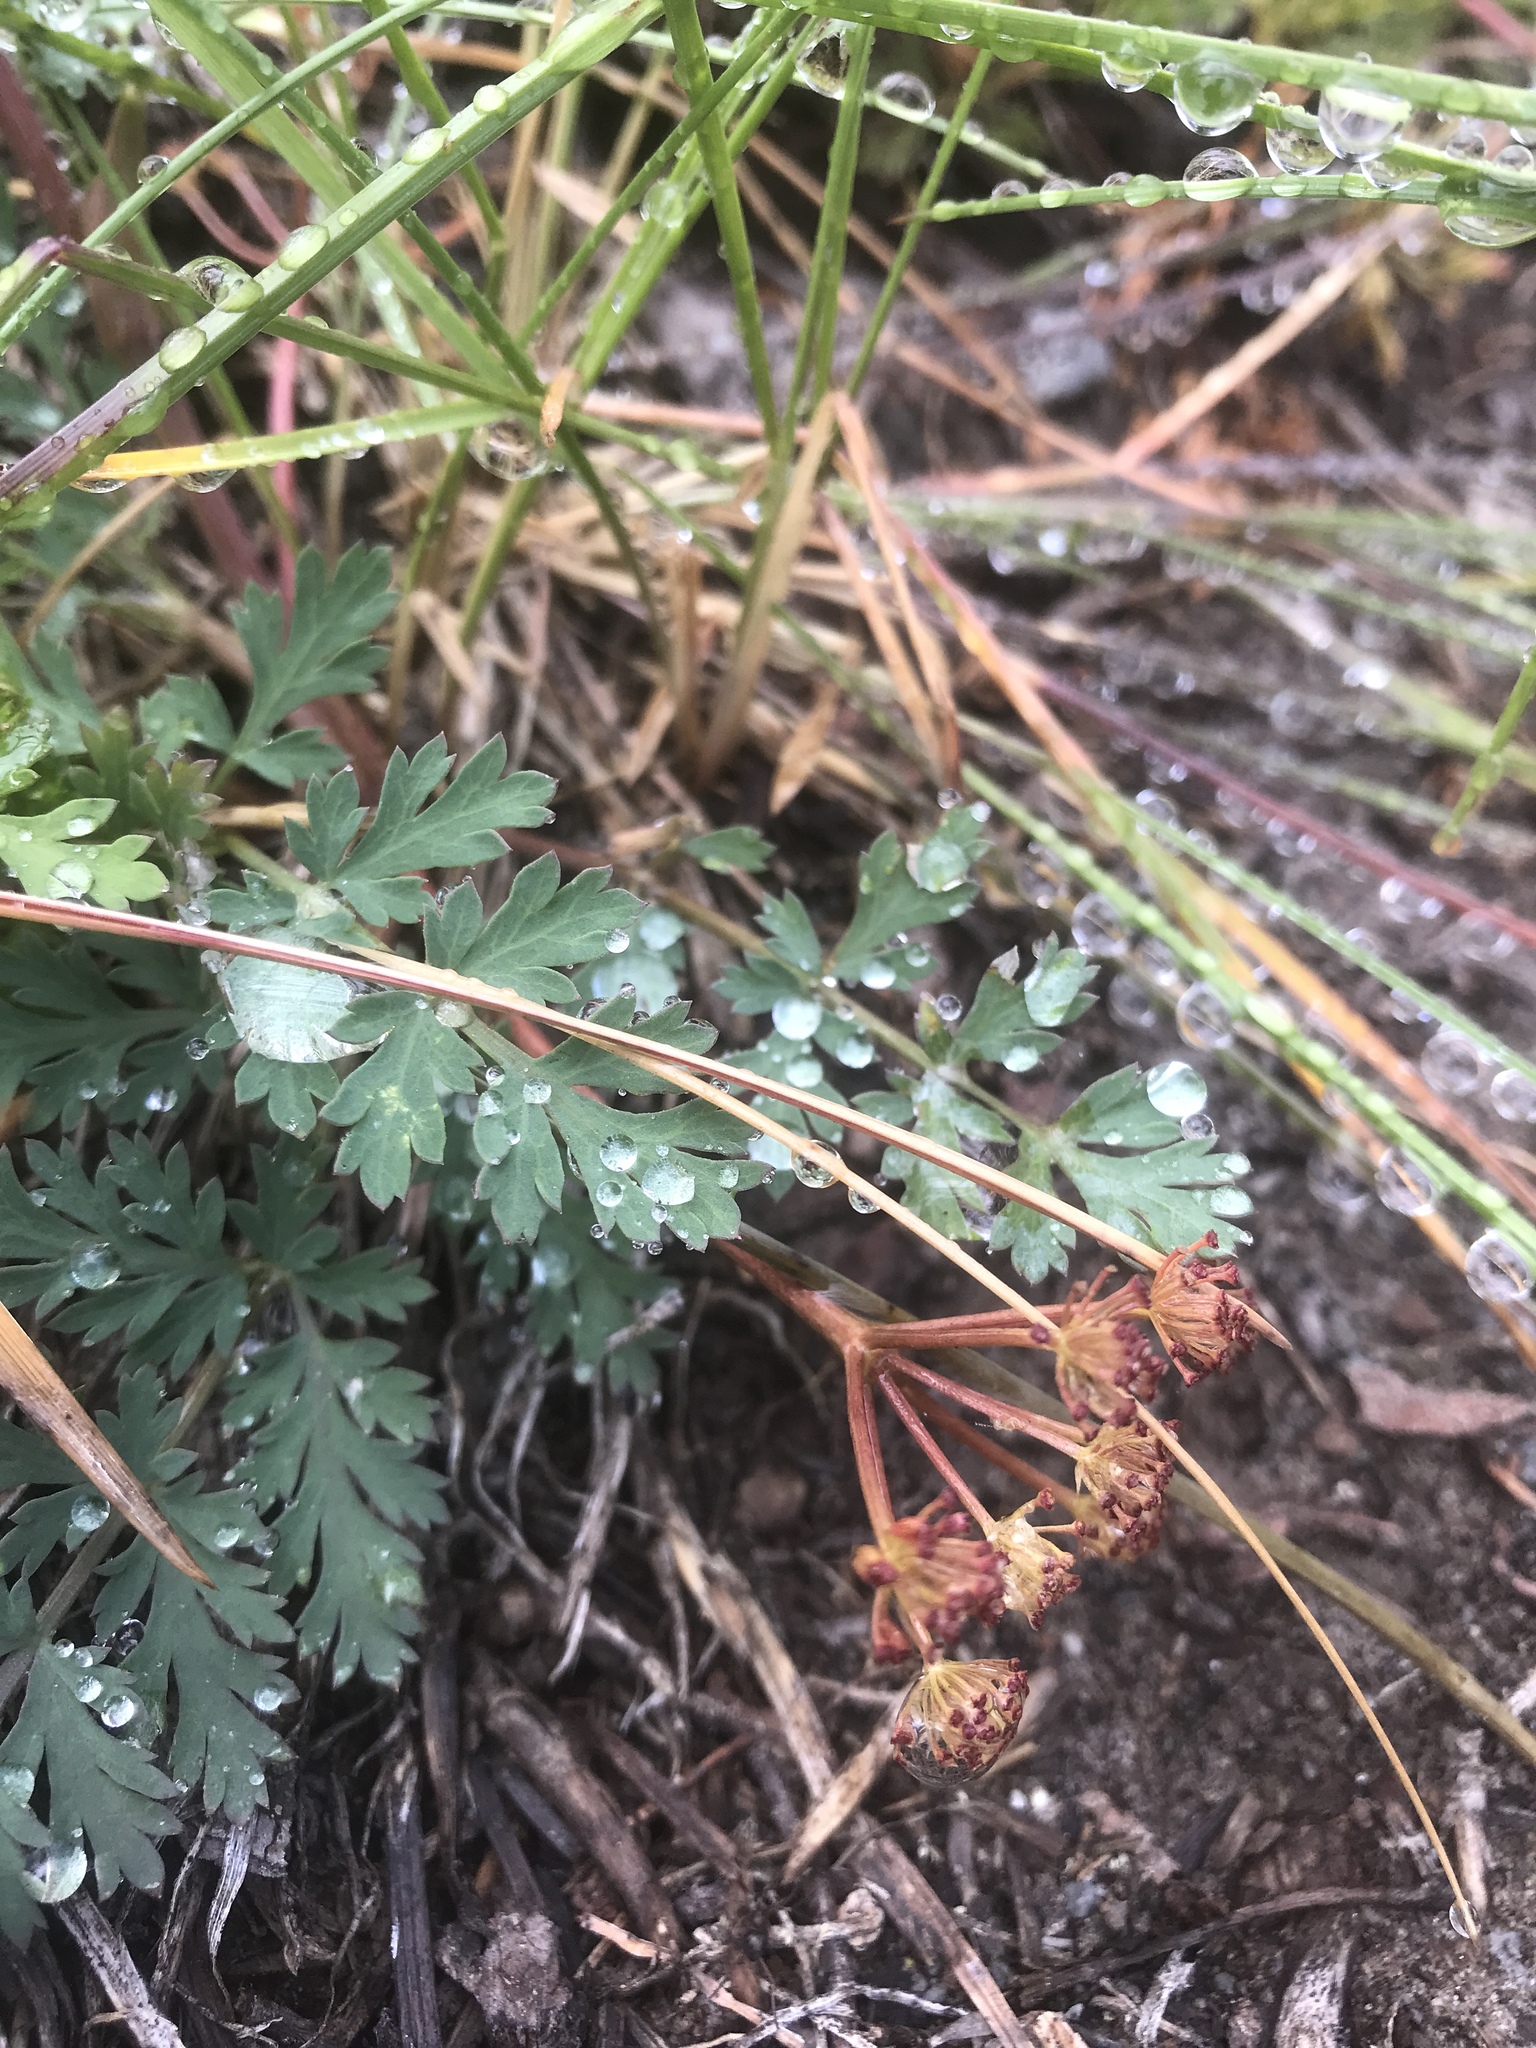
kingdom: Plantae
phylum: Tracheophyta
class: Magnoliopsida
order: Apiales
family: Apiaceae
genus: Lomatium
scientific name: Lomatium martindalei
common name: Cascade desert-parsley
